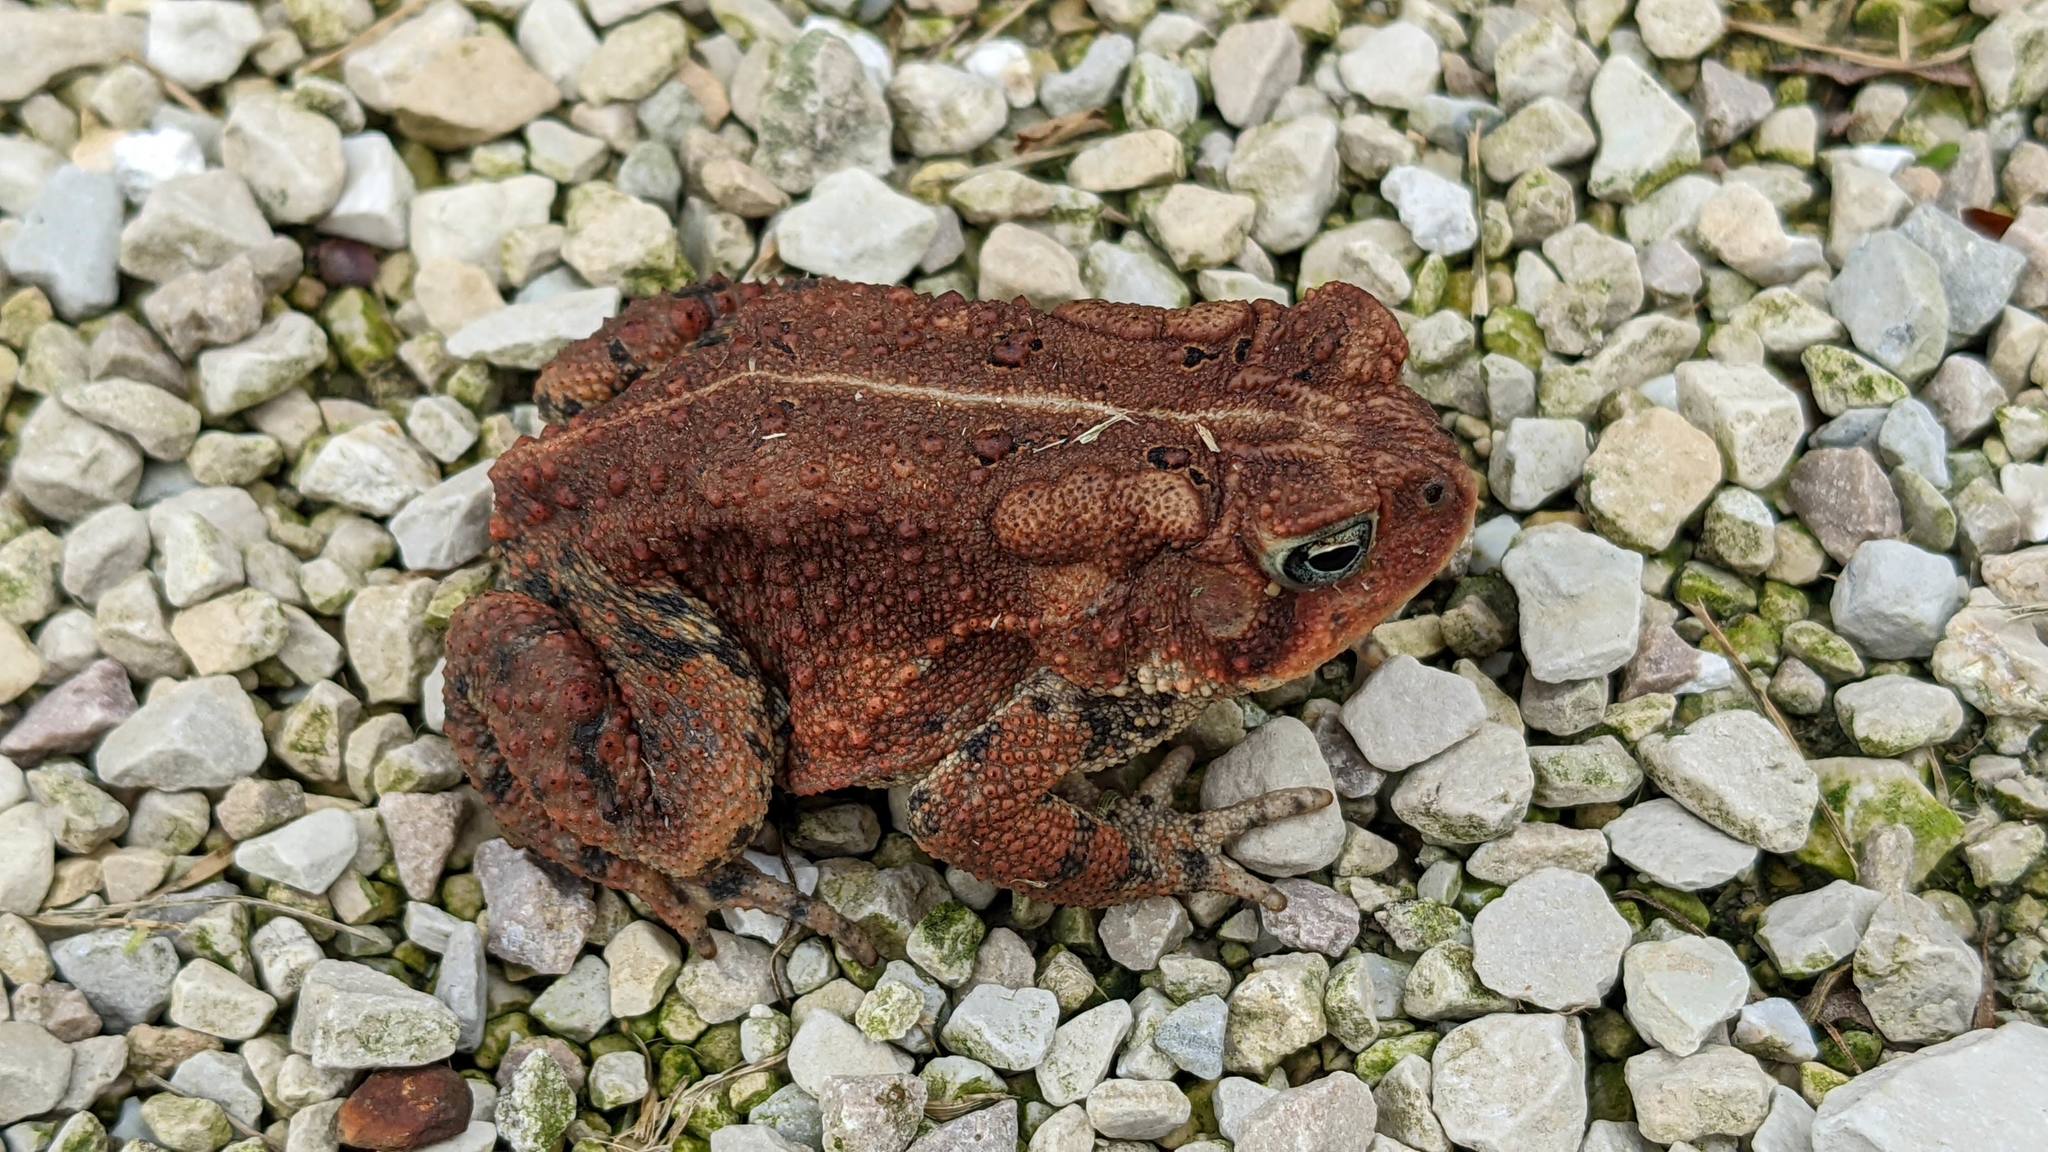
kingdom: Animalia
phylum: Chordata
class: Amphibia
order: Anura
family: Bufonidae
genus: Anaxyrus
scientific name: Anaxyrus americanus
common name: American toad
